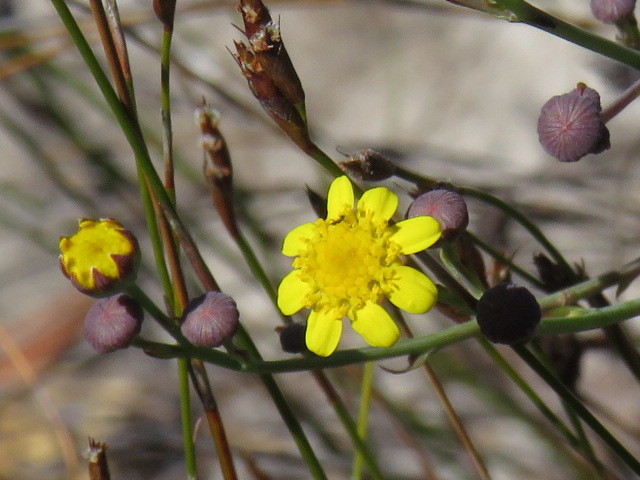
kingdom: Plantae
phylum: Tracheophyta
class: Magnoliopsida
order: Asterales
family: Asteraceae
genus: Othonna
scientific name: Othonna quinquedentata
